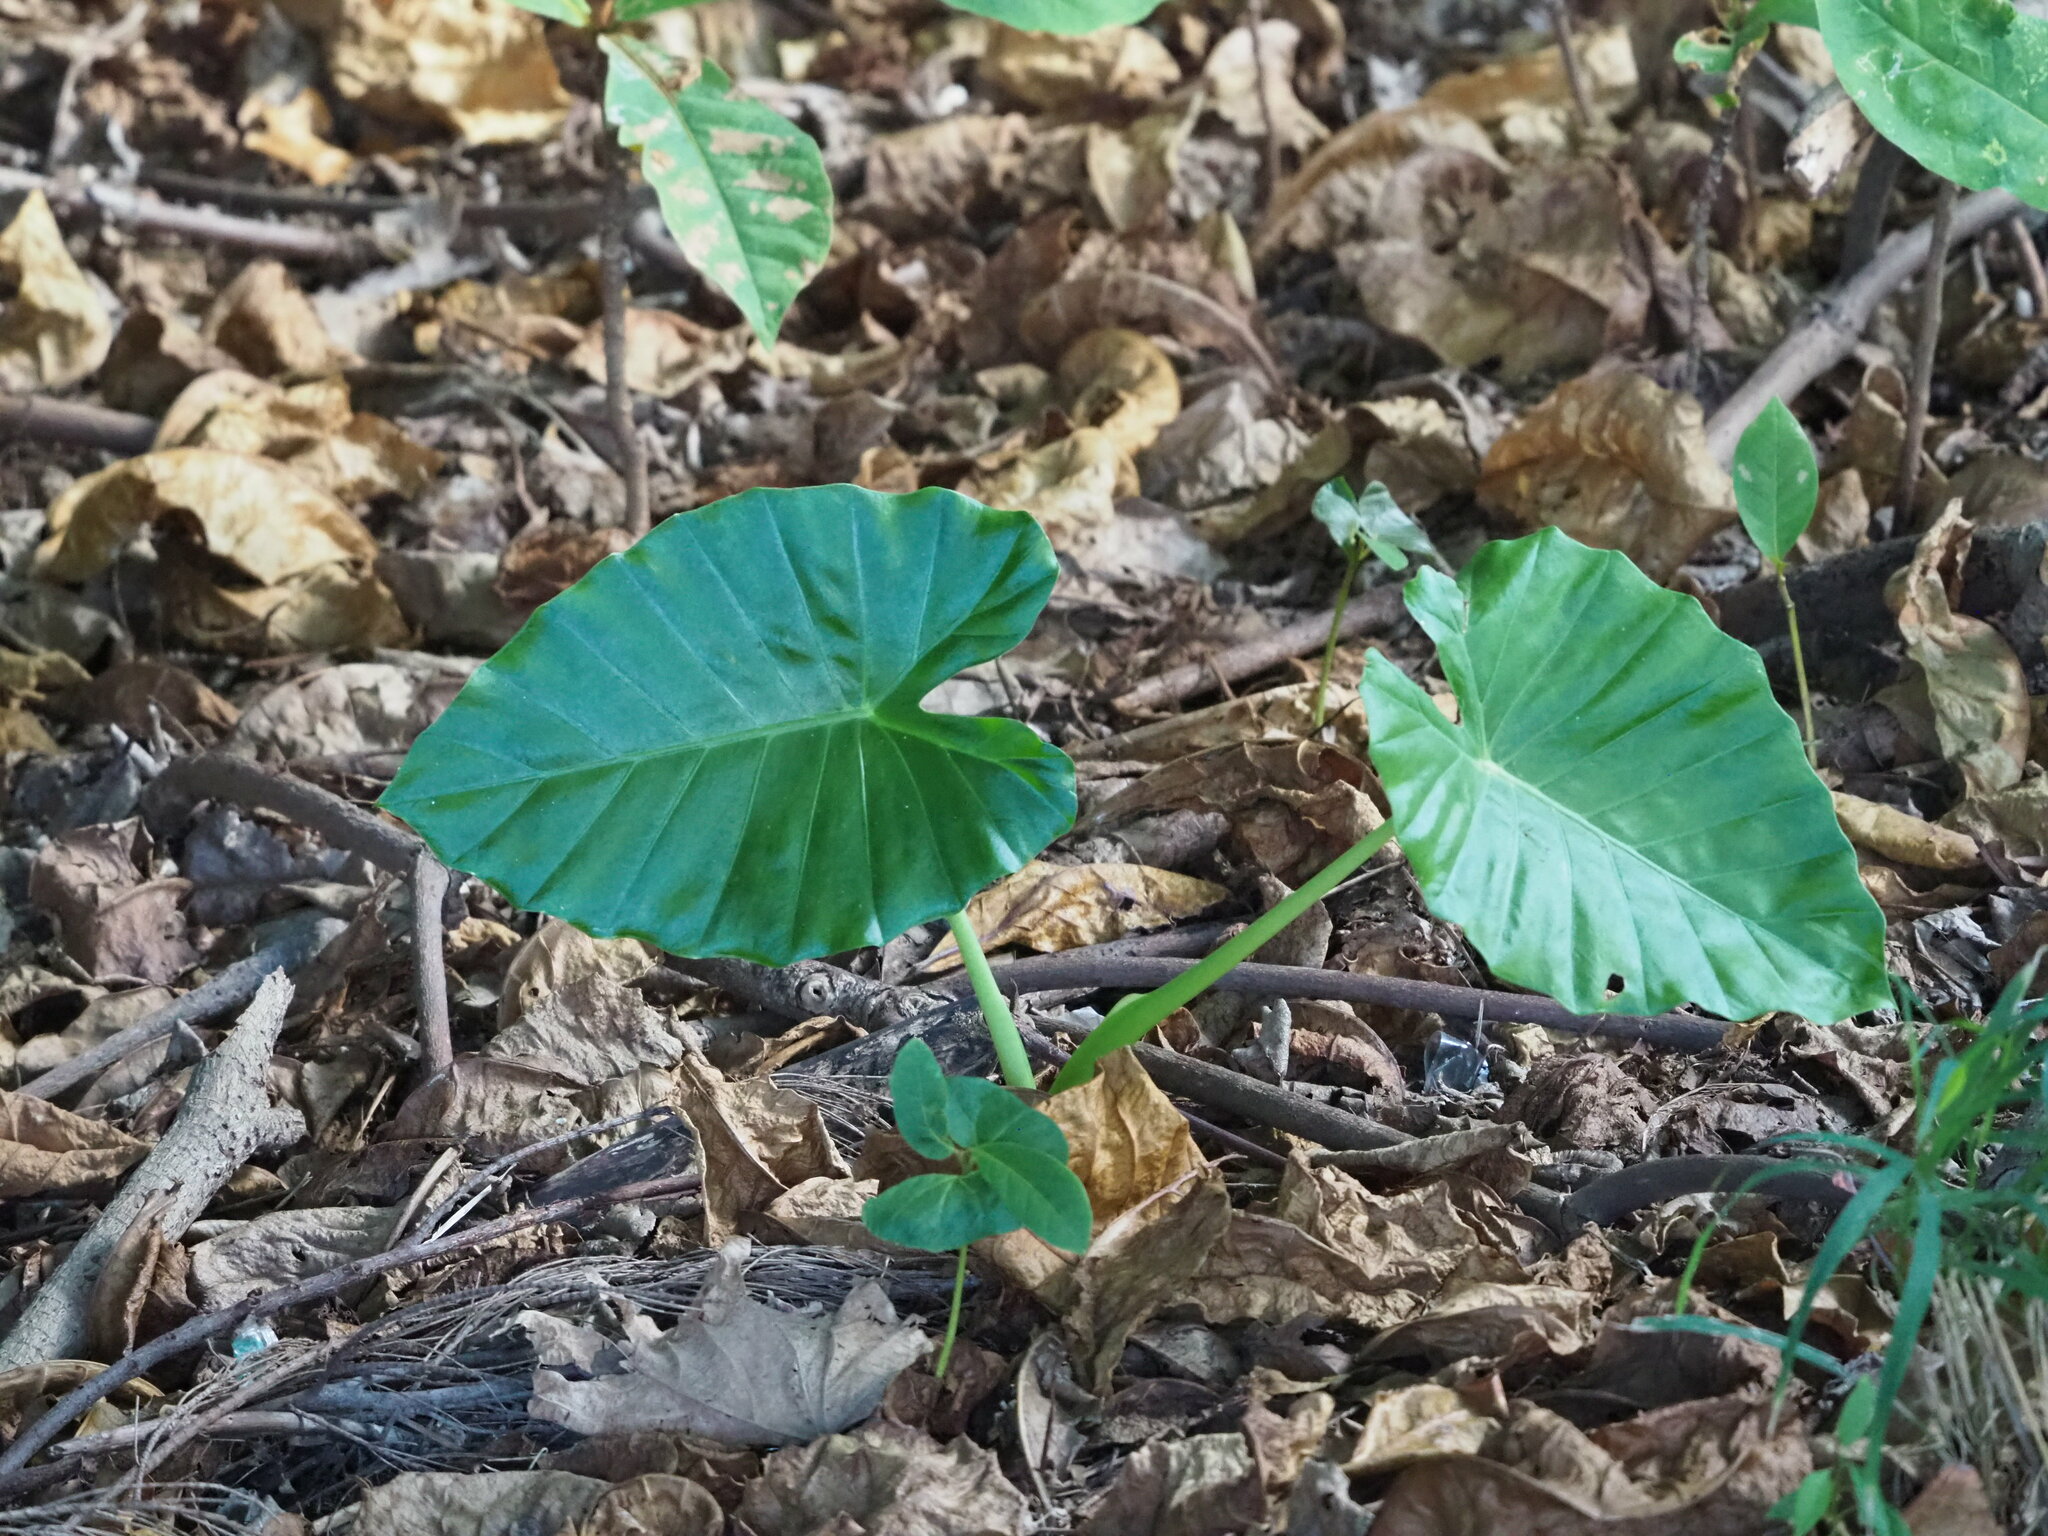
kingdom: Plantae
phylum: Tracheophyta
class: Liliopsida
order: Alismatales
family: Araceae
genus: Alocasia
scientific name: Alocasia odora
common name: Asian taro
